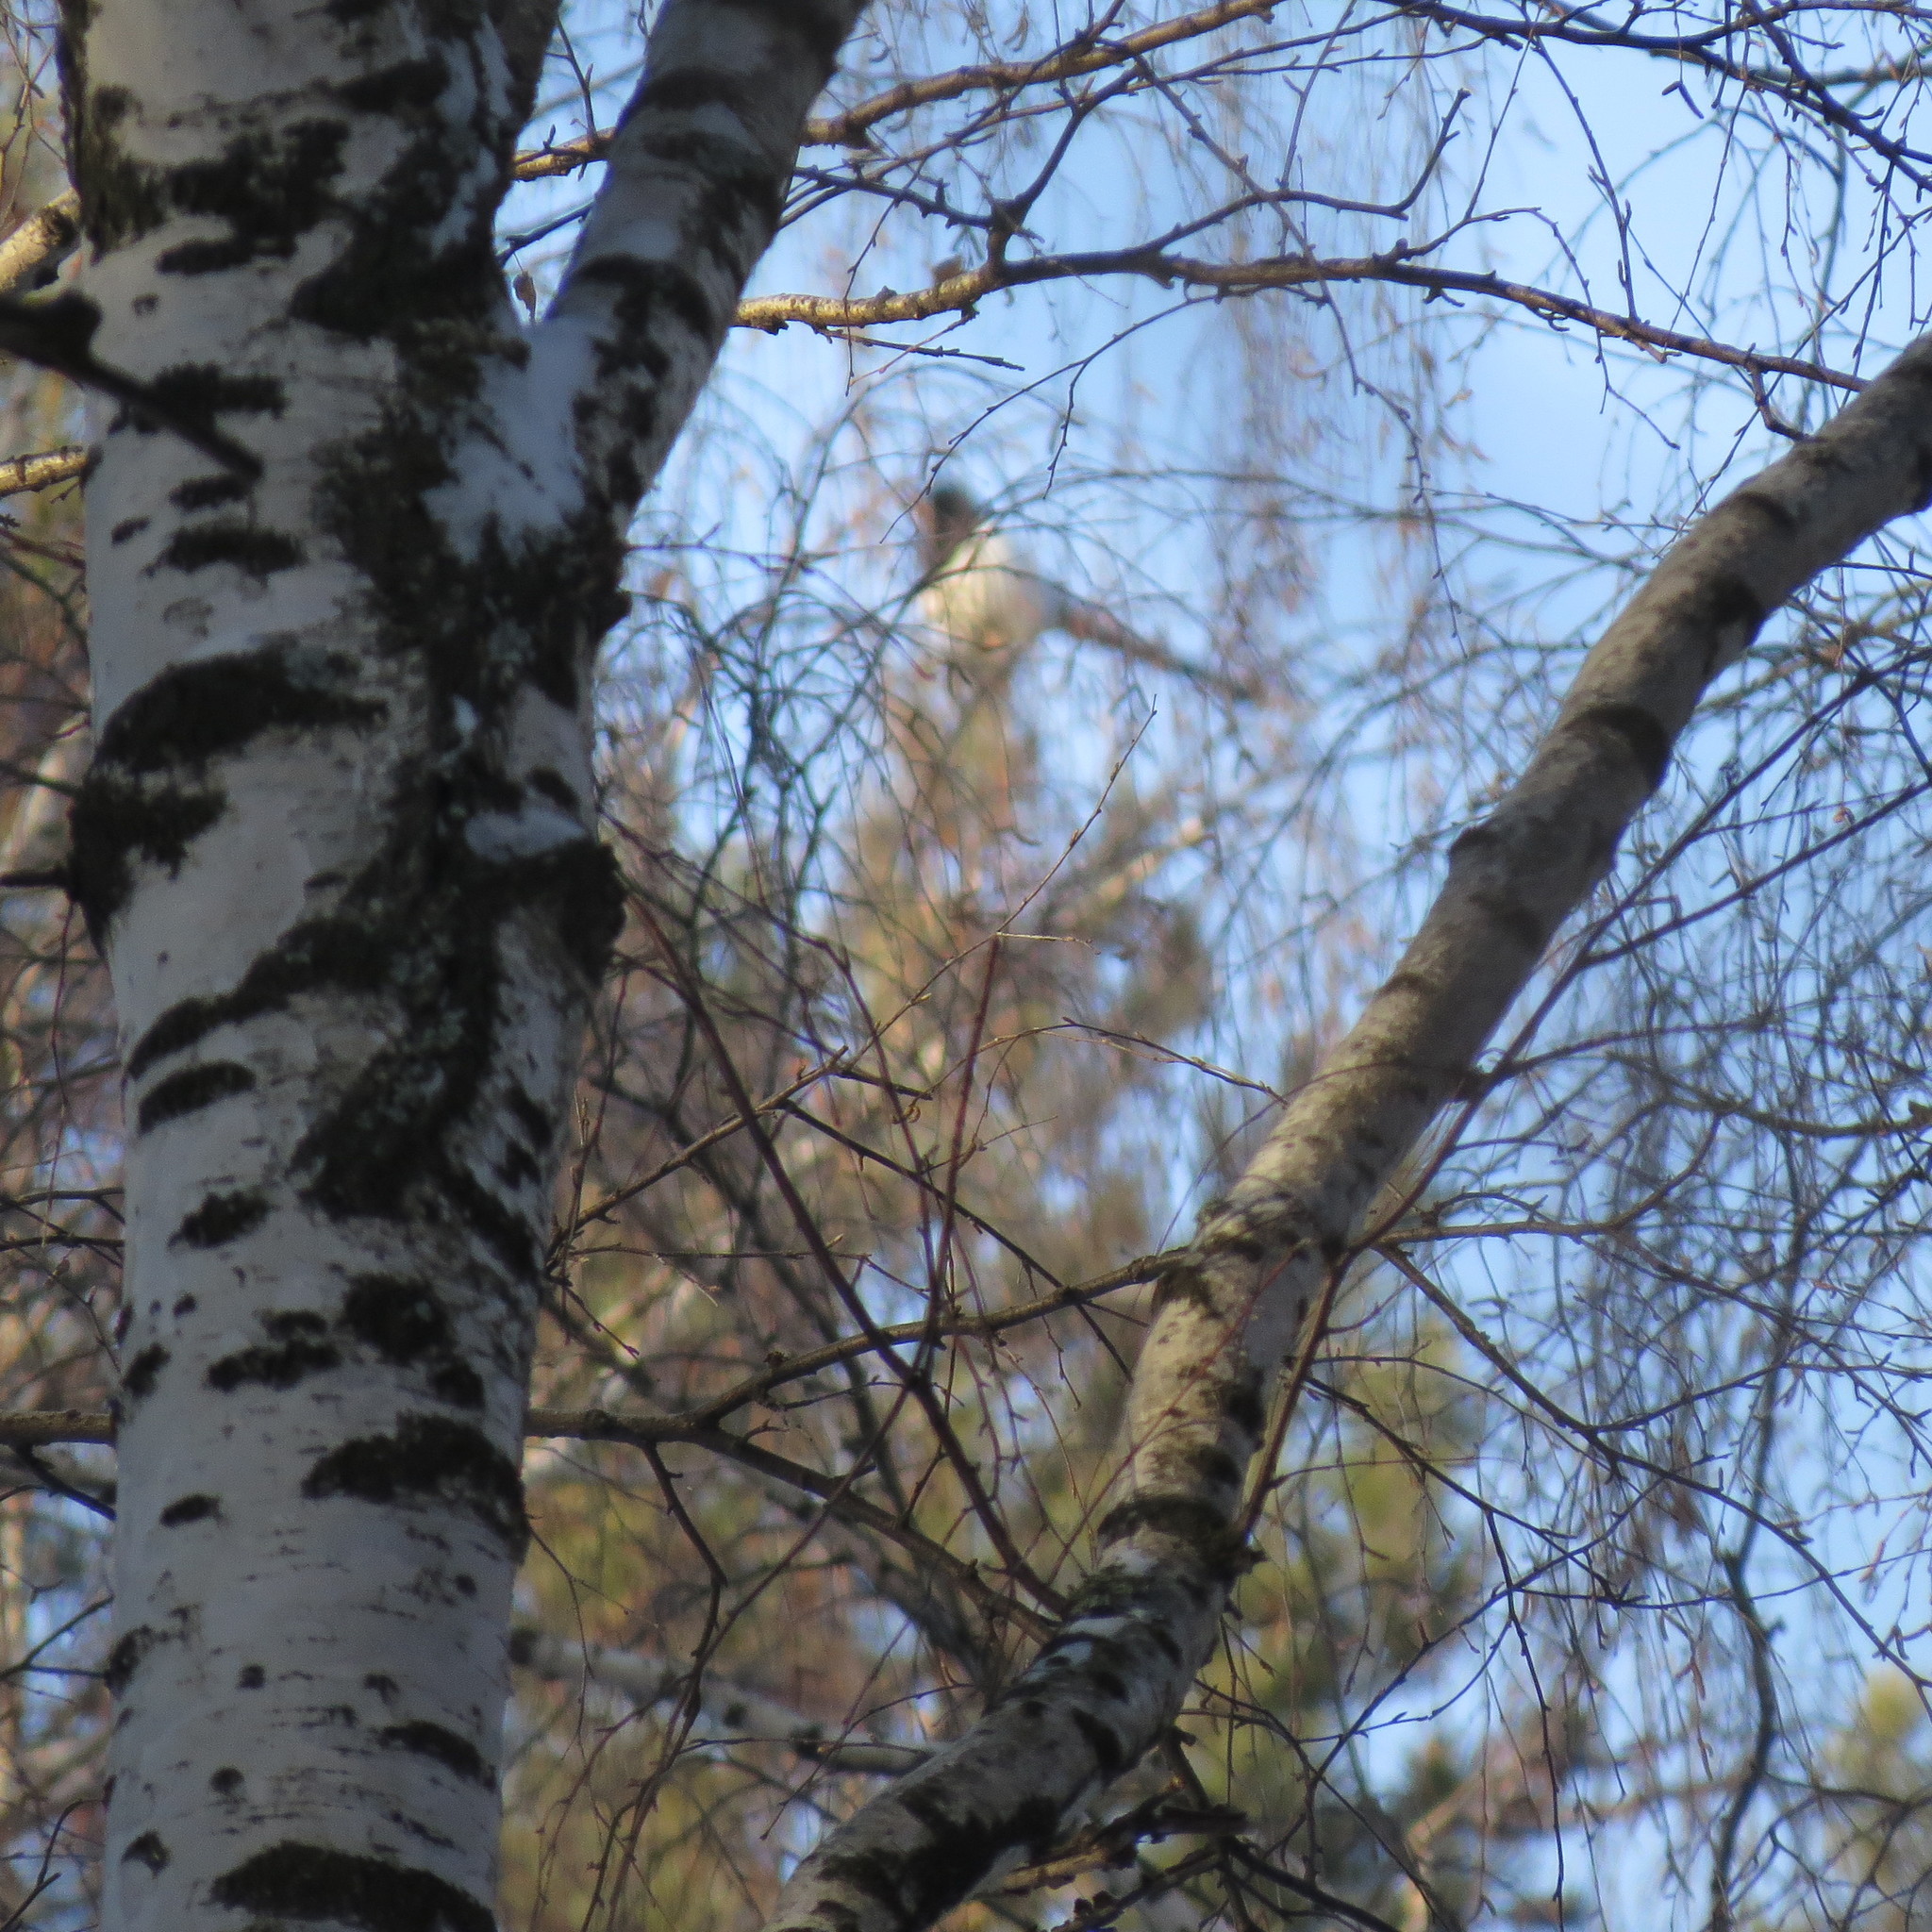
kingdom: Animalia
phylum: Chordata
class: Aves
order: Passeriformes
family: Corvidae
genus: Pica
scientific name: Pica pica
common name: Eurasian magpie
